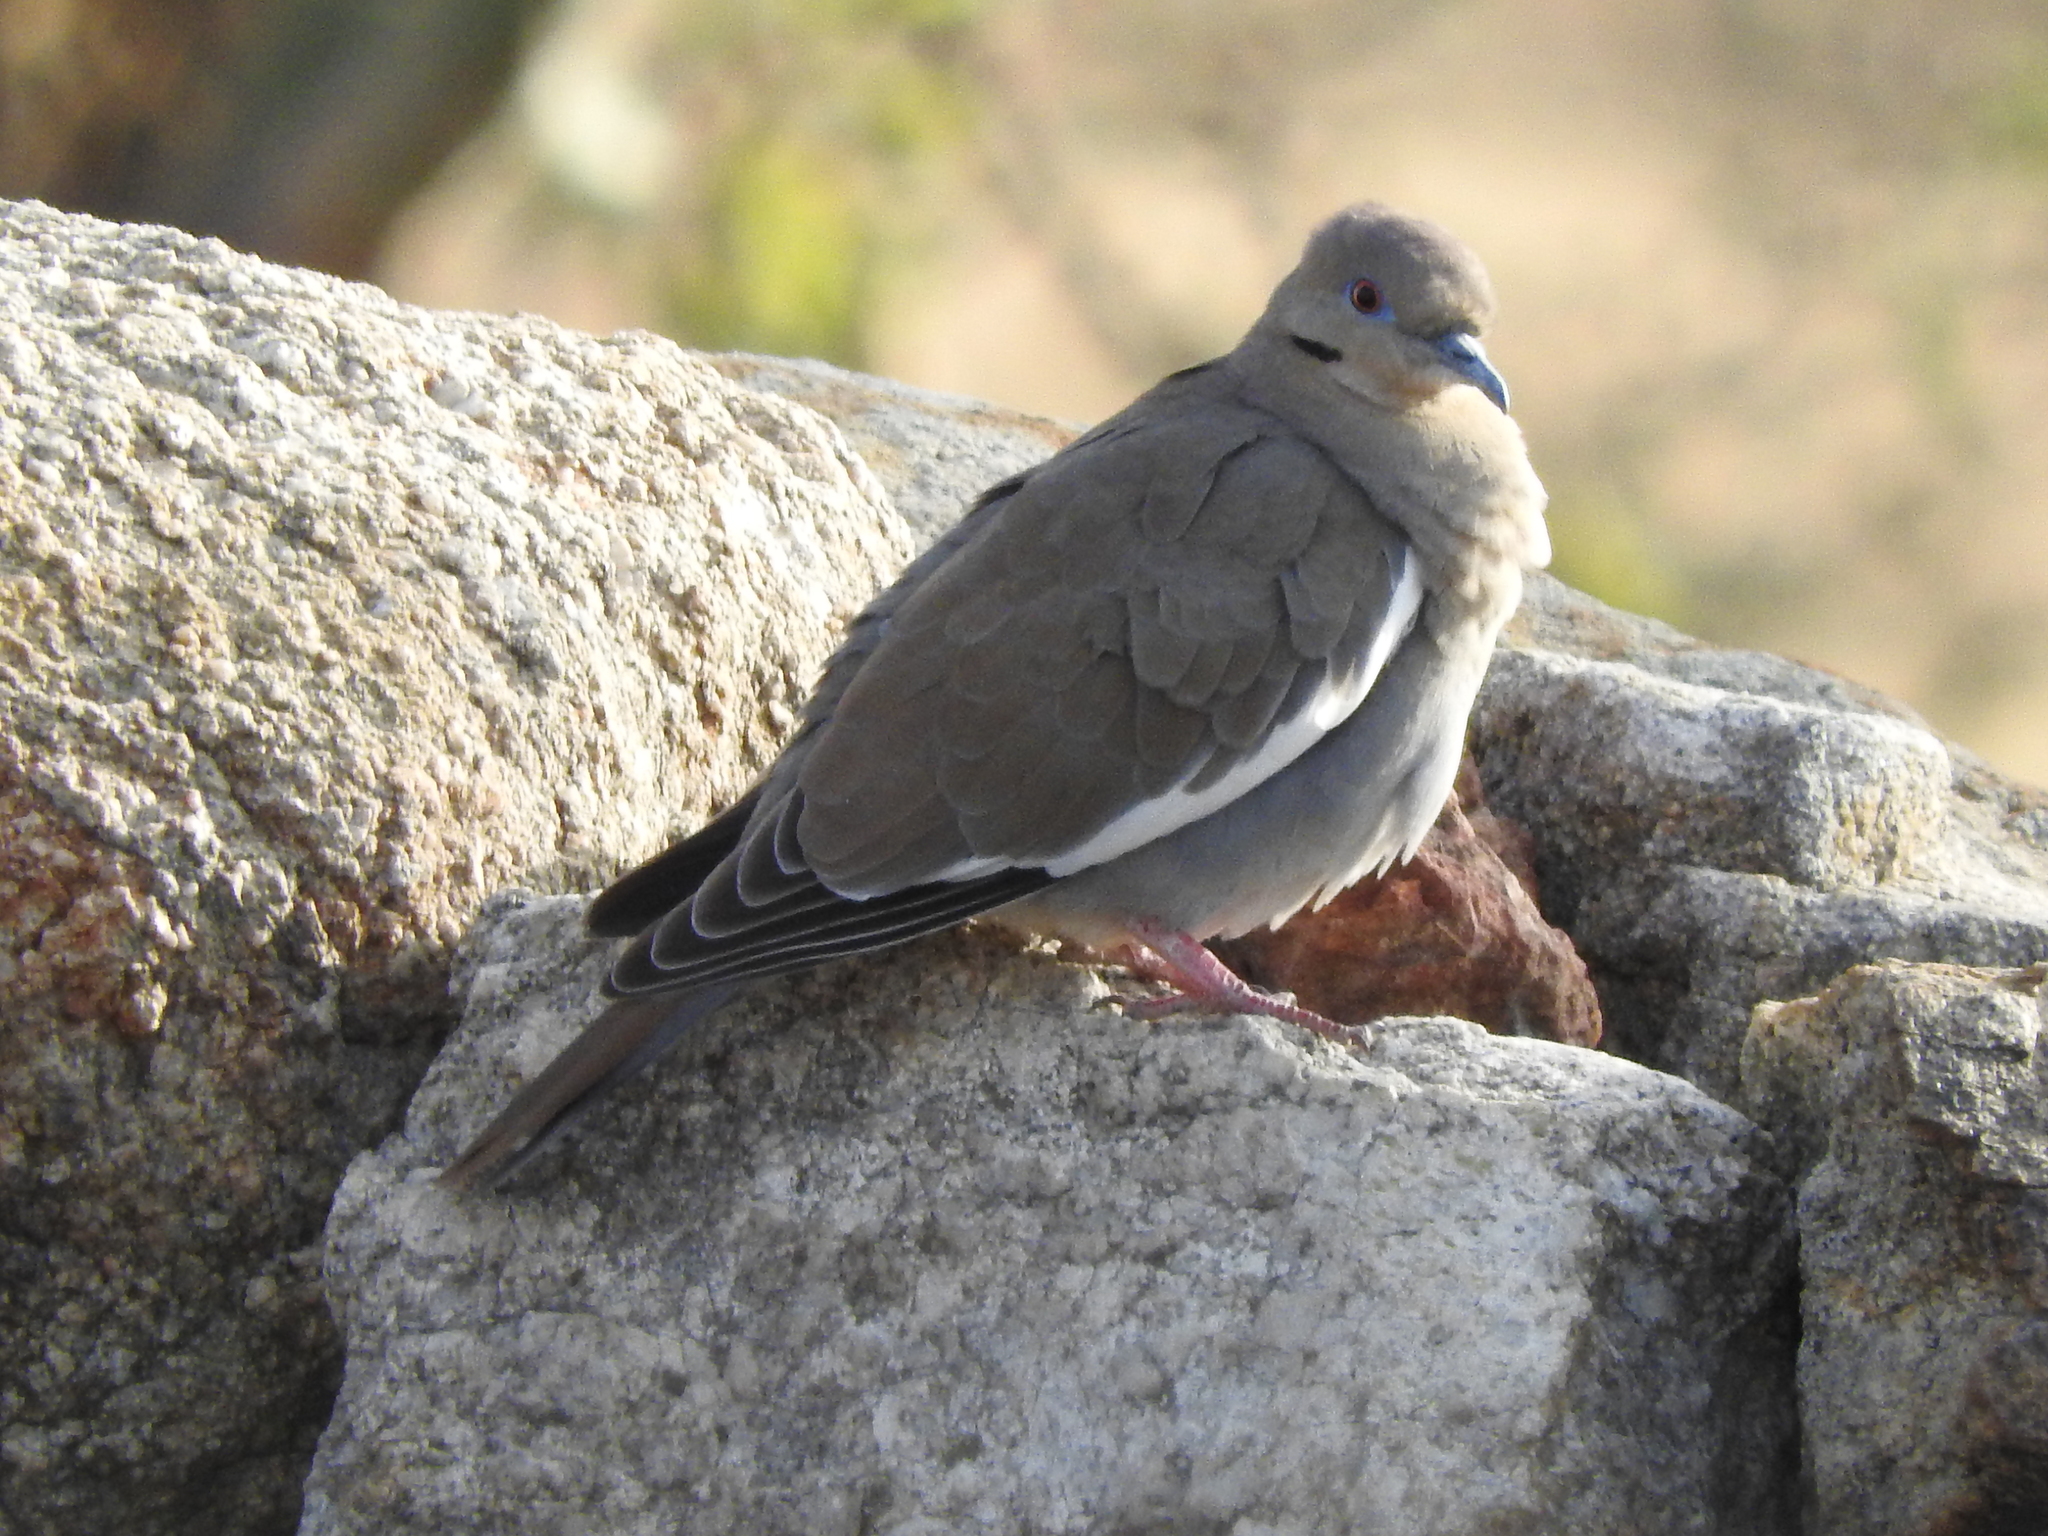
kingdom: Animalia
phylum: Chordata
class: Aves
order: Columbiformes
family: Columbidae
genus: Zenaida
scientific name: Zenaida asiatica
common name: White-winged dove
